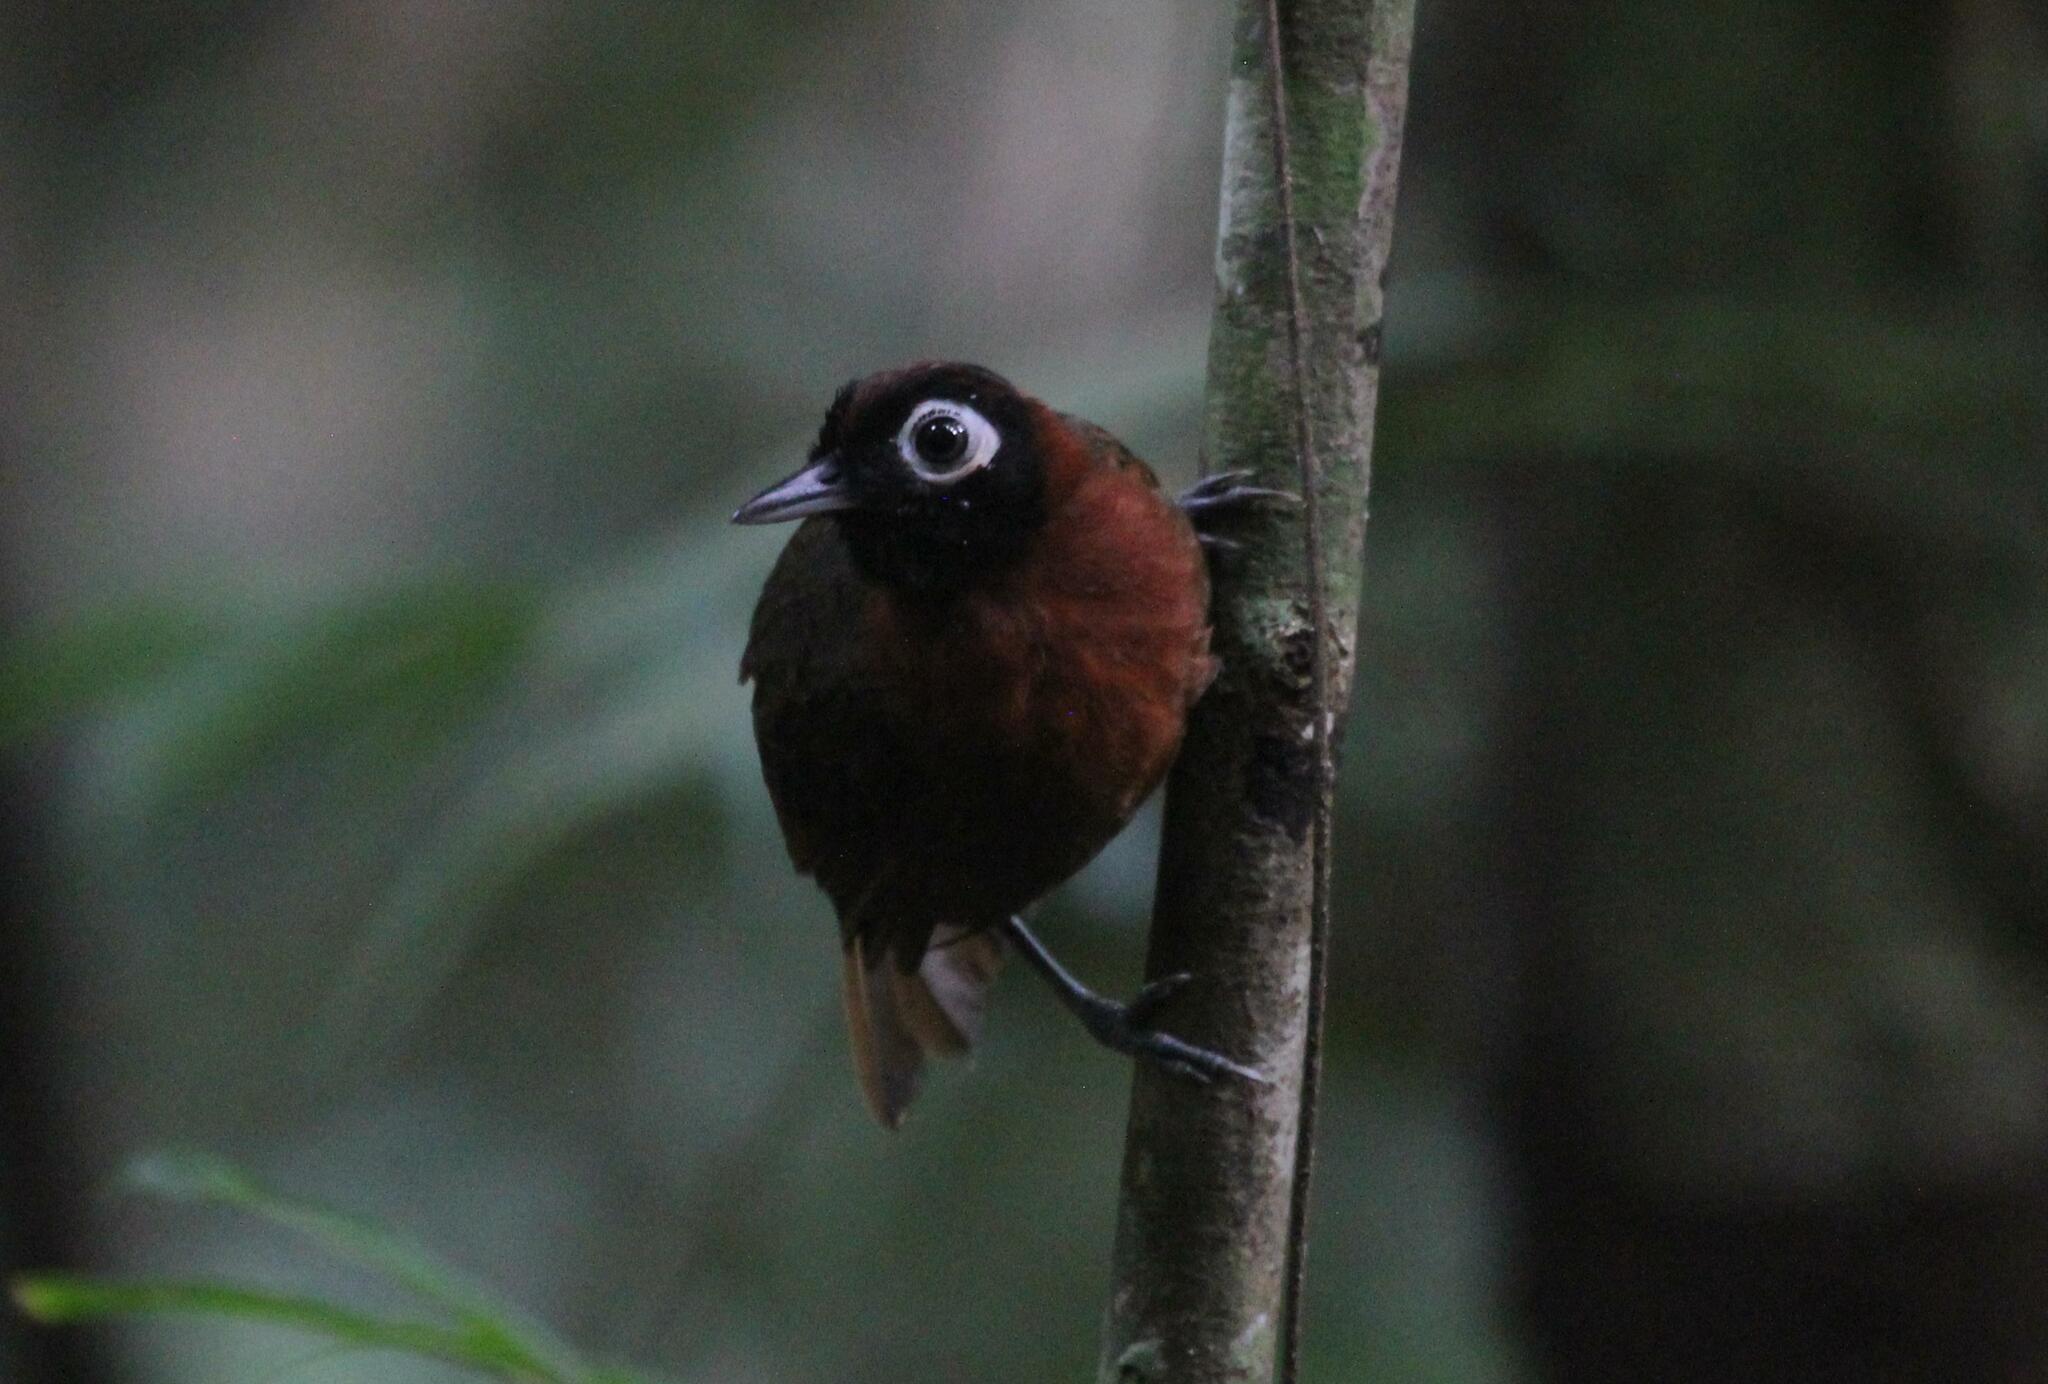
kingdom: Animalia
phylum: Chordata
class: Aves
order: Passeriformes
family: Thamnophilidae
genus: Rhegmatorhina
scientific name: Rhegmatorhina cristata
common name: Chestnut-crested antbird
